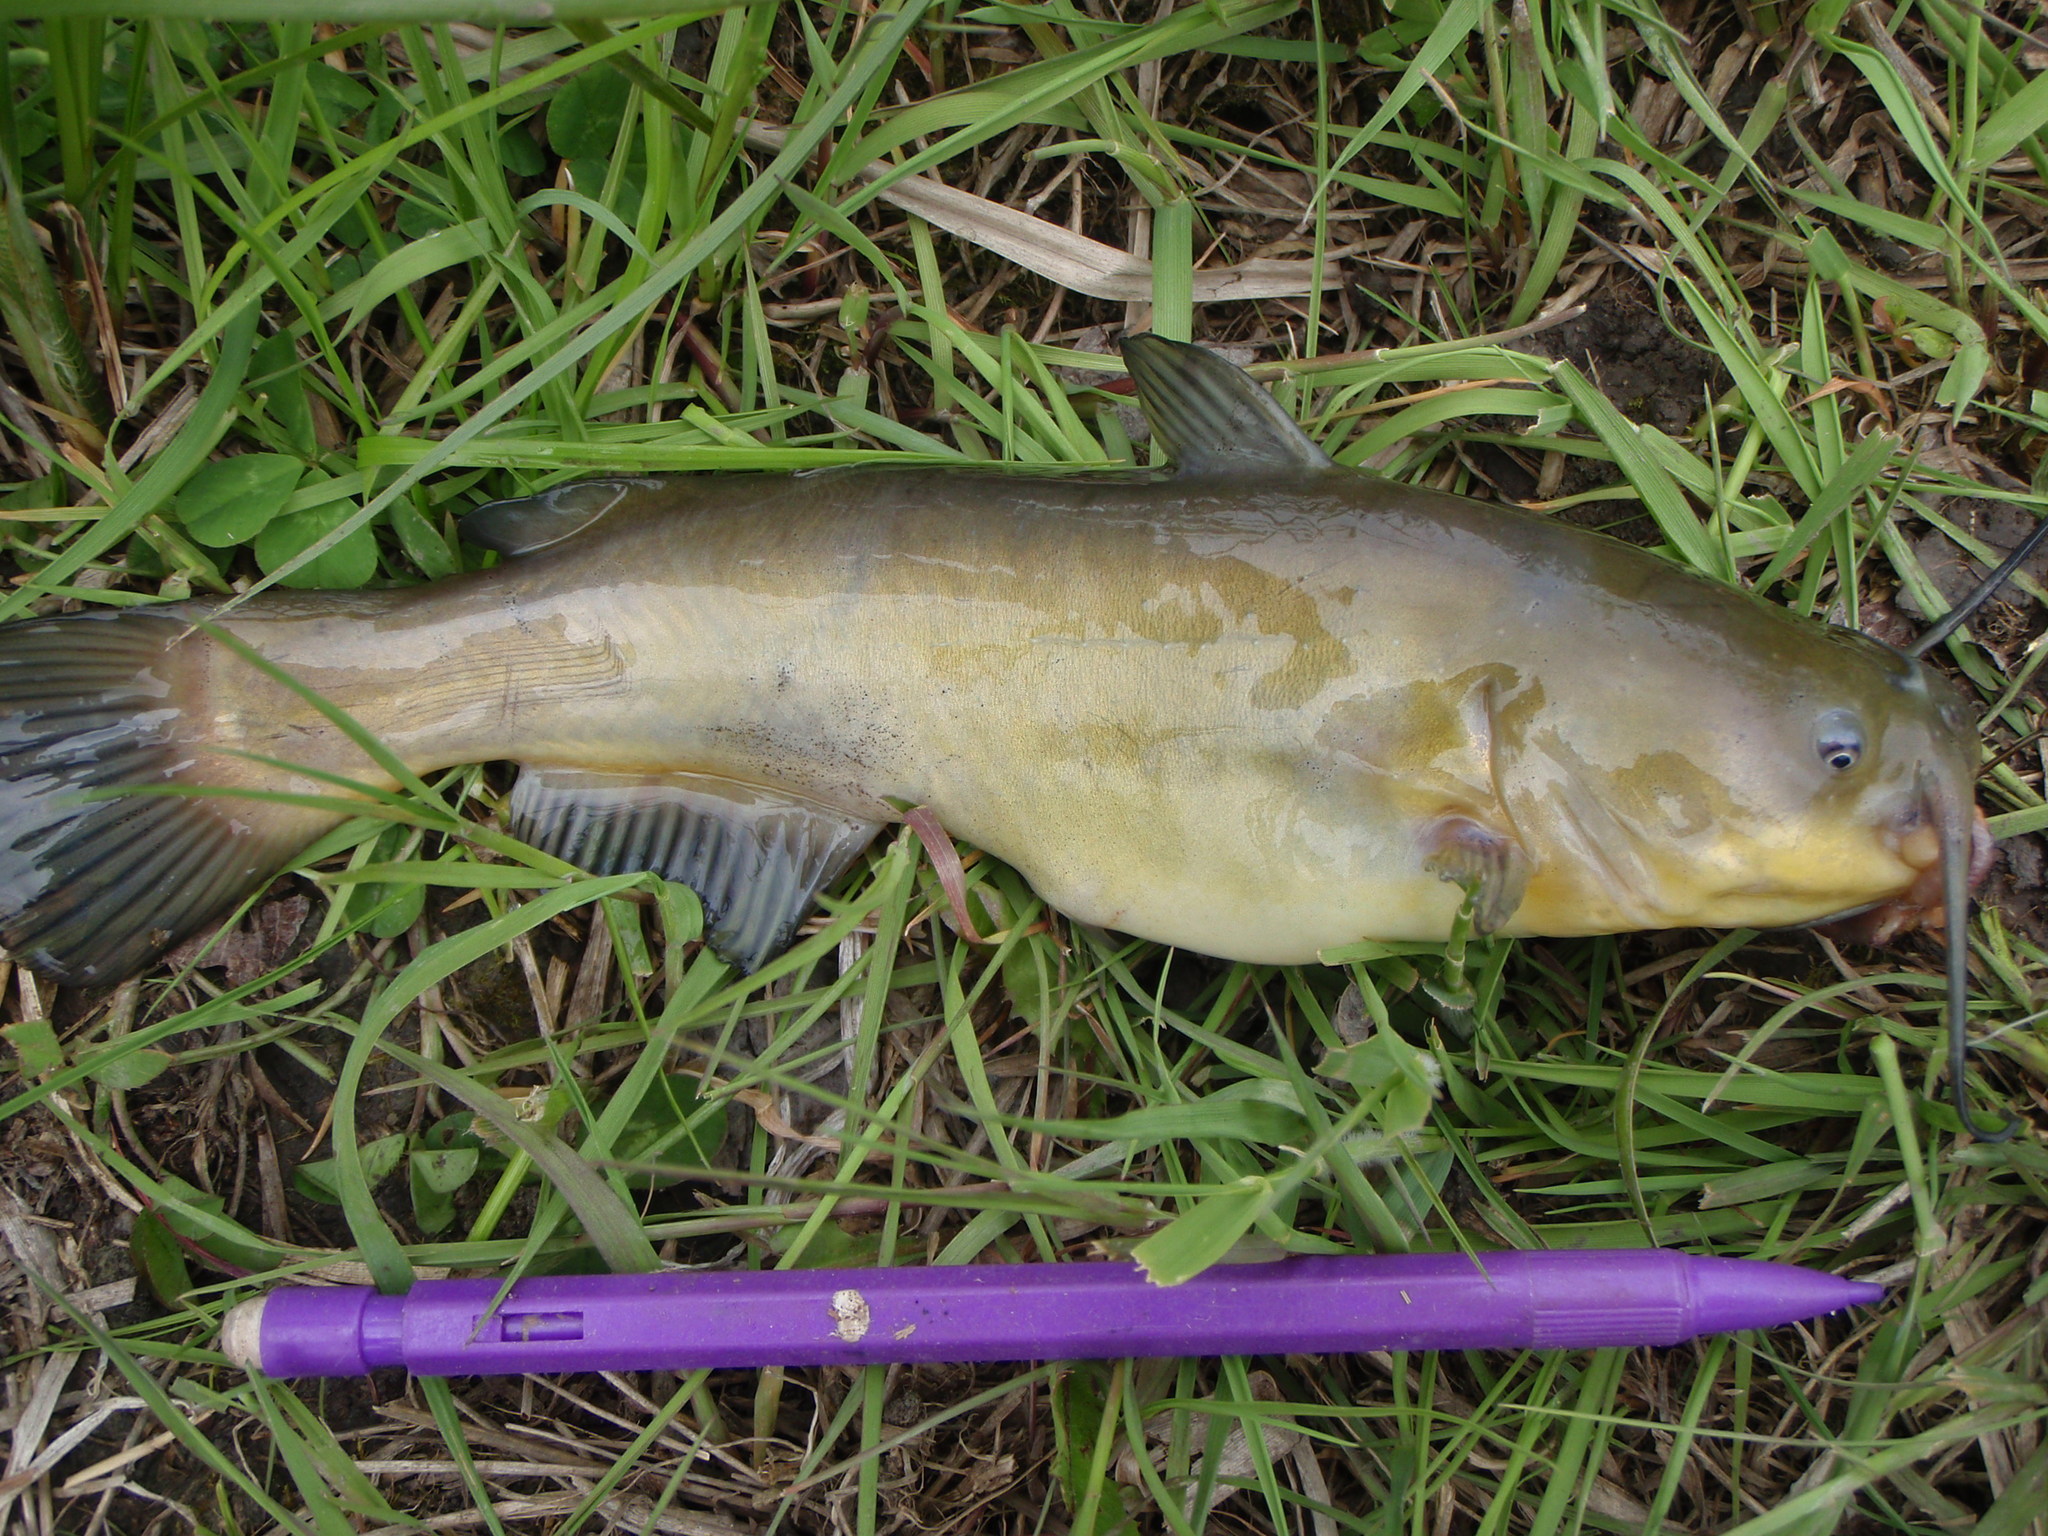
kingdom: Animalia
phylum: Chordata
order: Siluriformes
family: Ictaluridae
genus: Ameiurus
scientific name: Ameiurus melas
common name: Black bullhead
